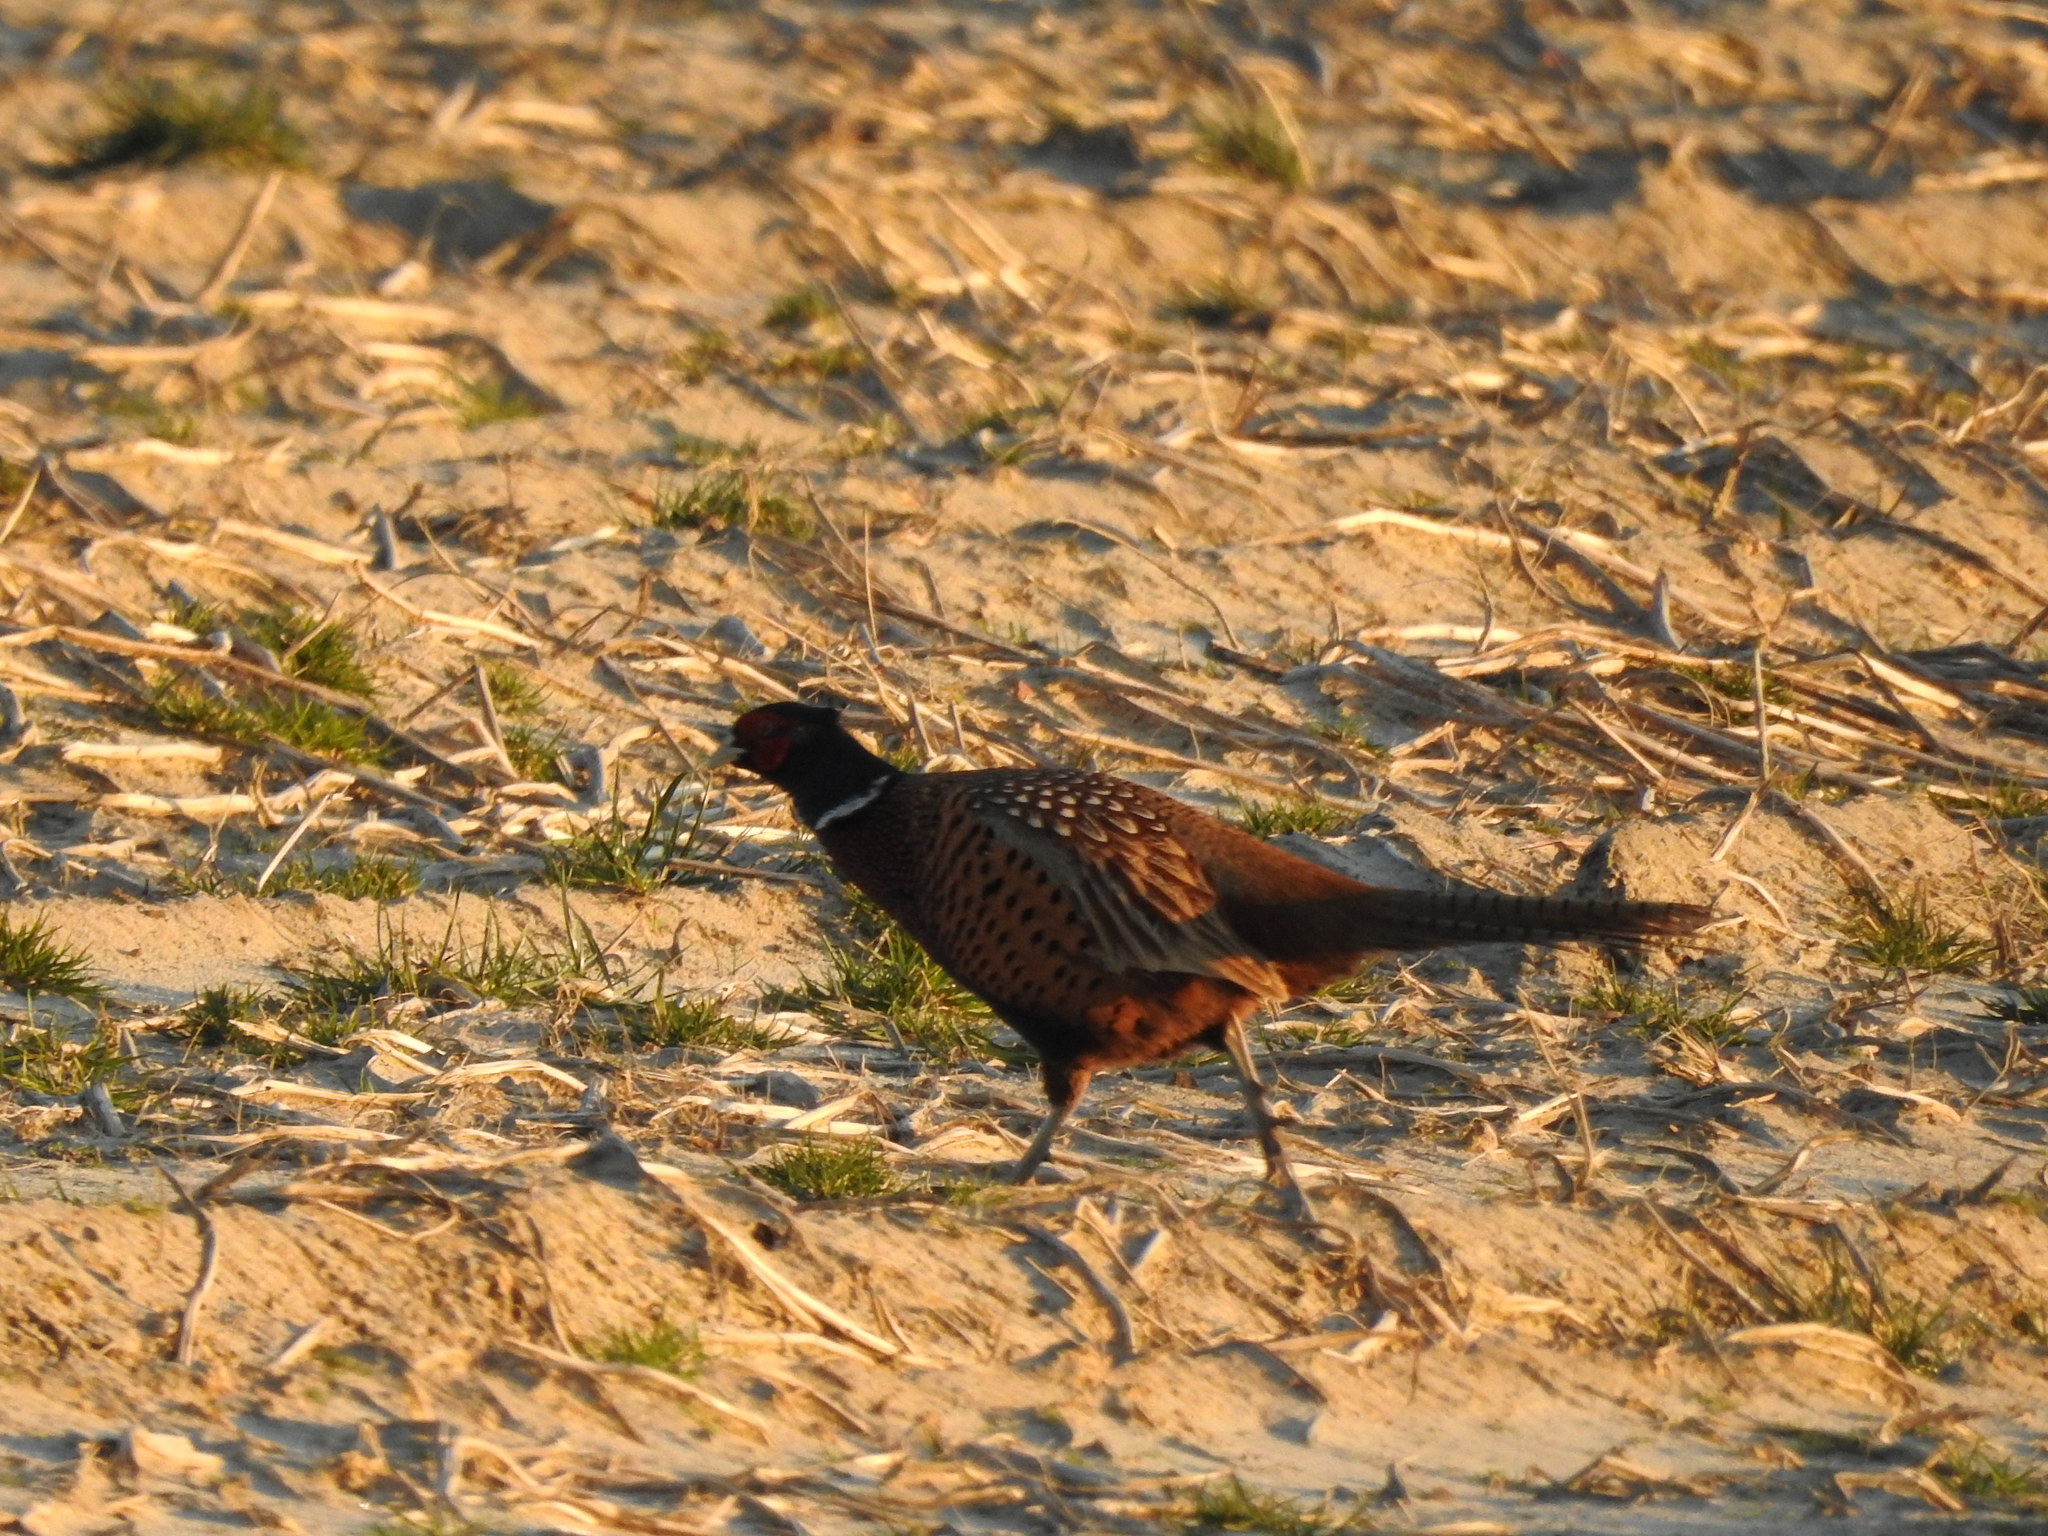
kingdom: Animalia
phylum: Chordata
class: Aves
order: Galliformes
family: Phasianidae
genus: Phasianus
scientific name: Phasianus colchicus
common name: Common pheasant
